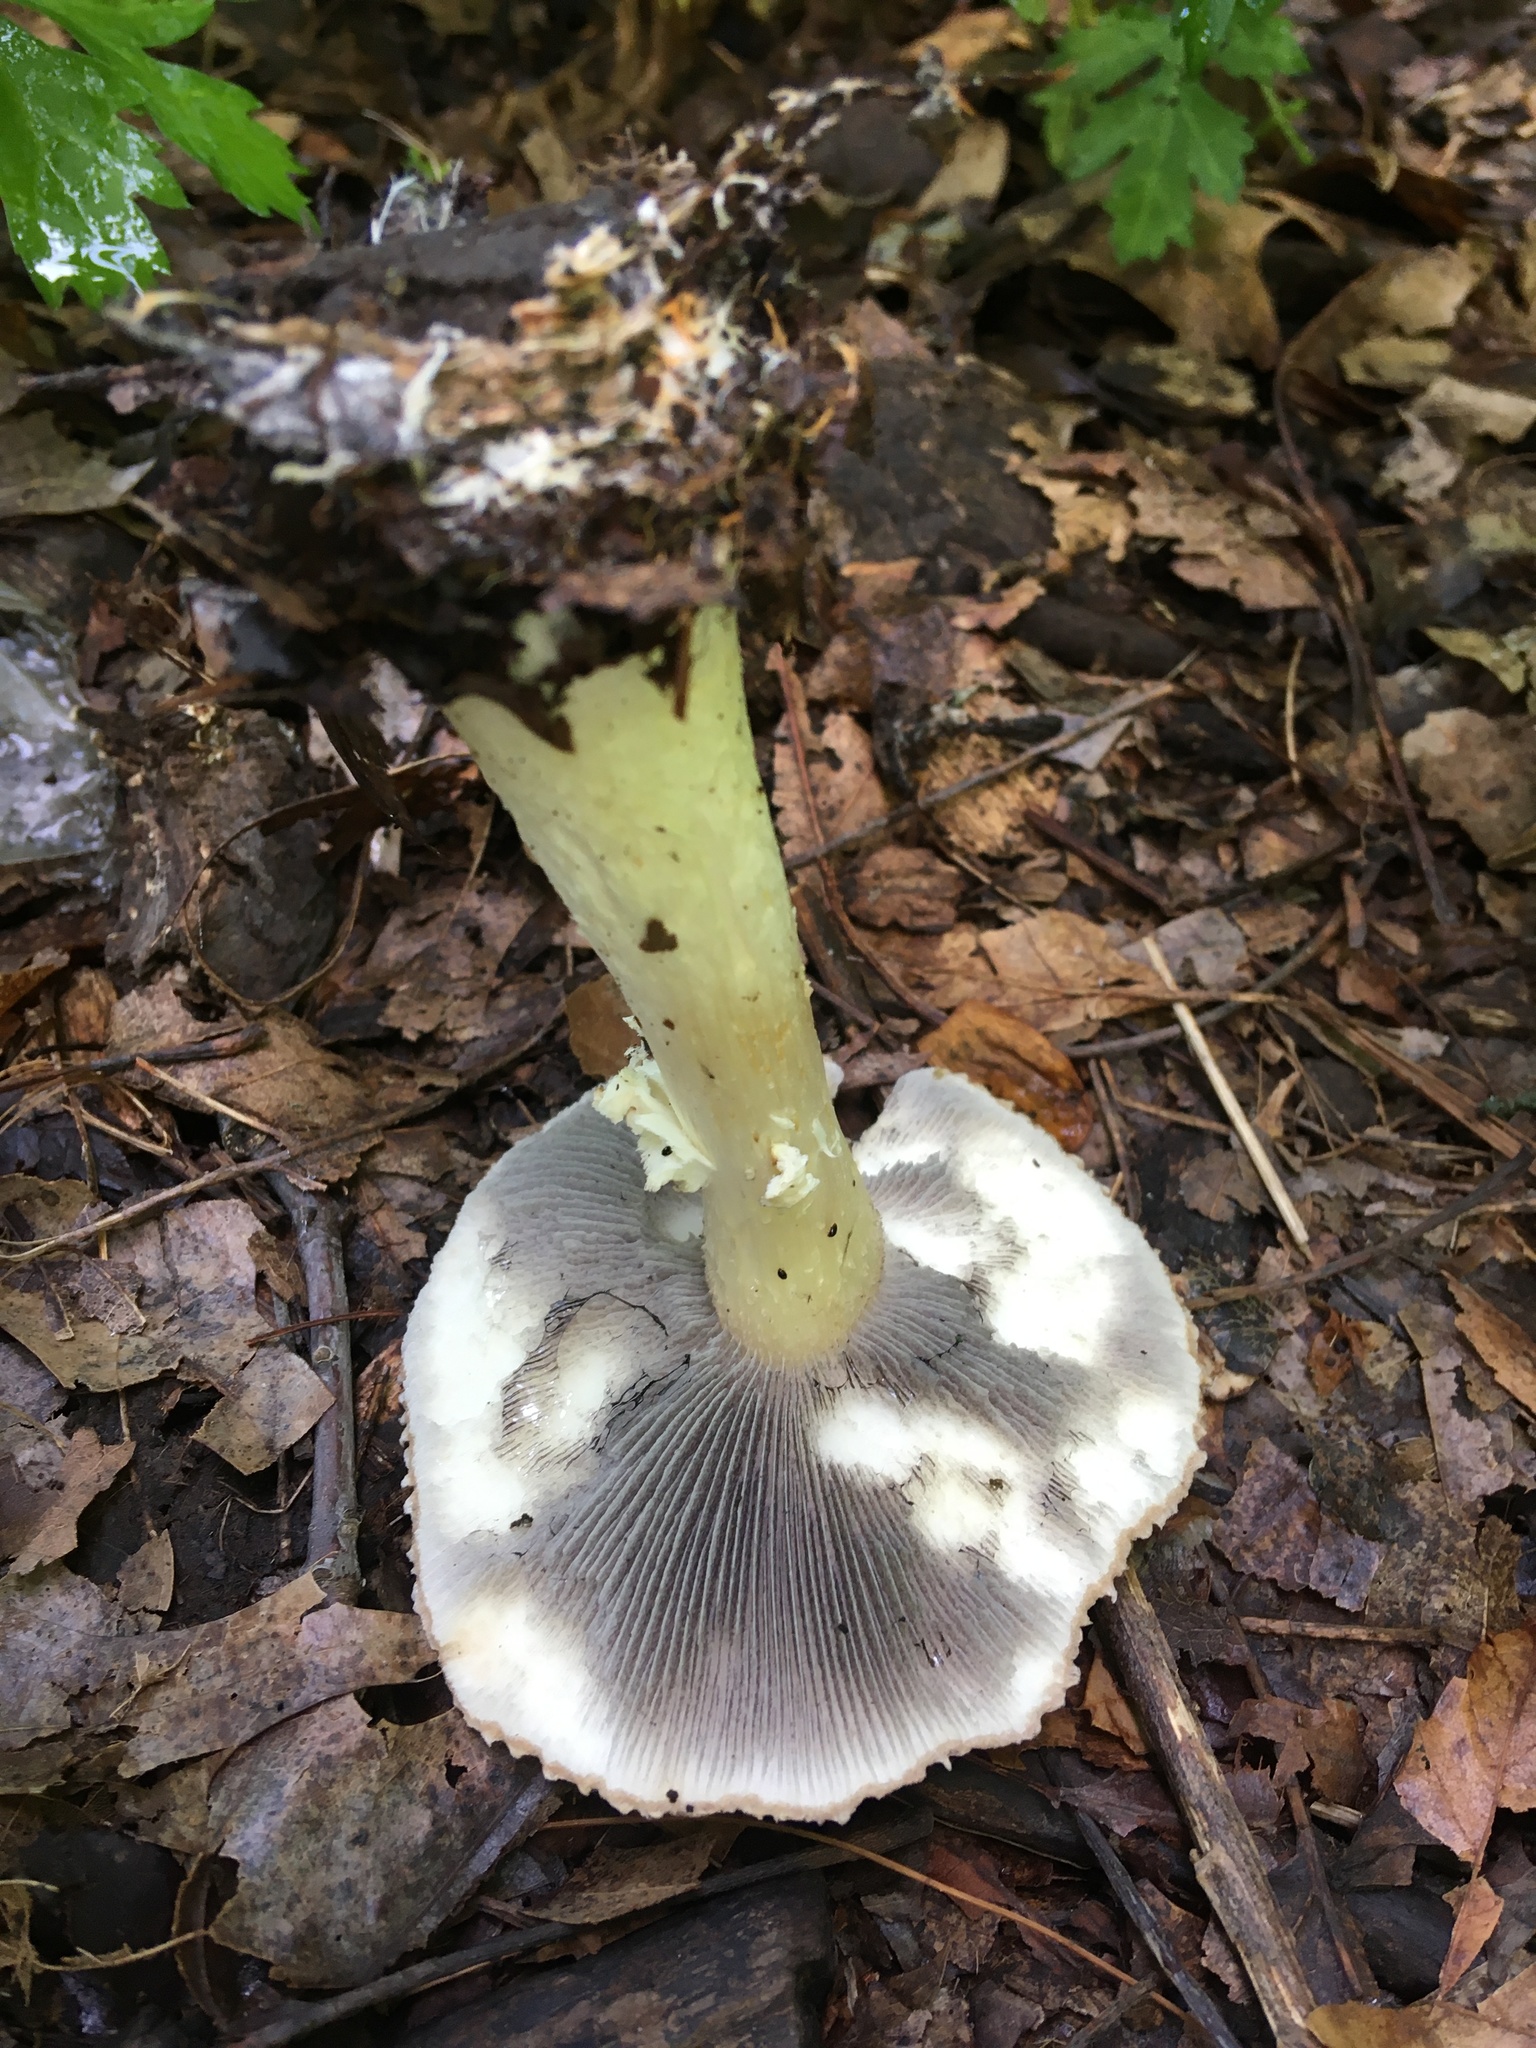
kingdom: Fungi
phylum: Basidiomycota
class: Agaricomycetes
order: Agaricales
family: Strophariaceae
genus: Stropharia
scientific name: Stropharia rugosoannulata
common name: Wine roundhead
